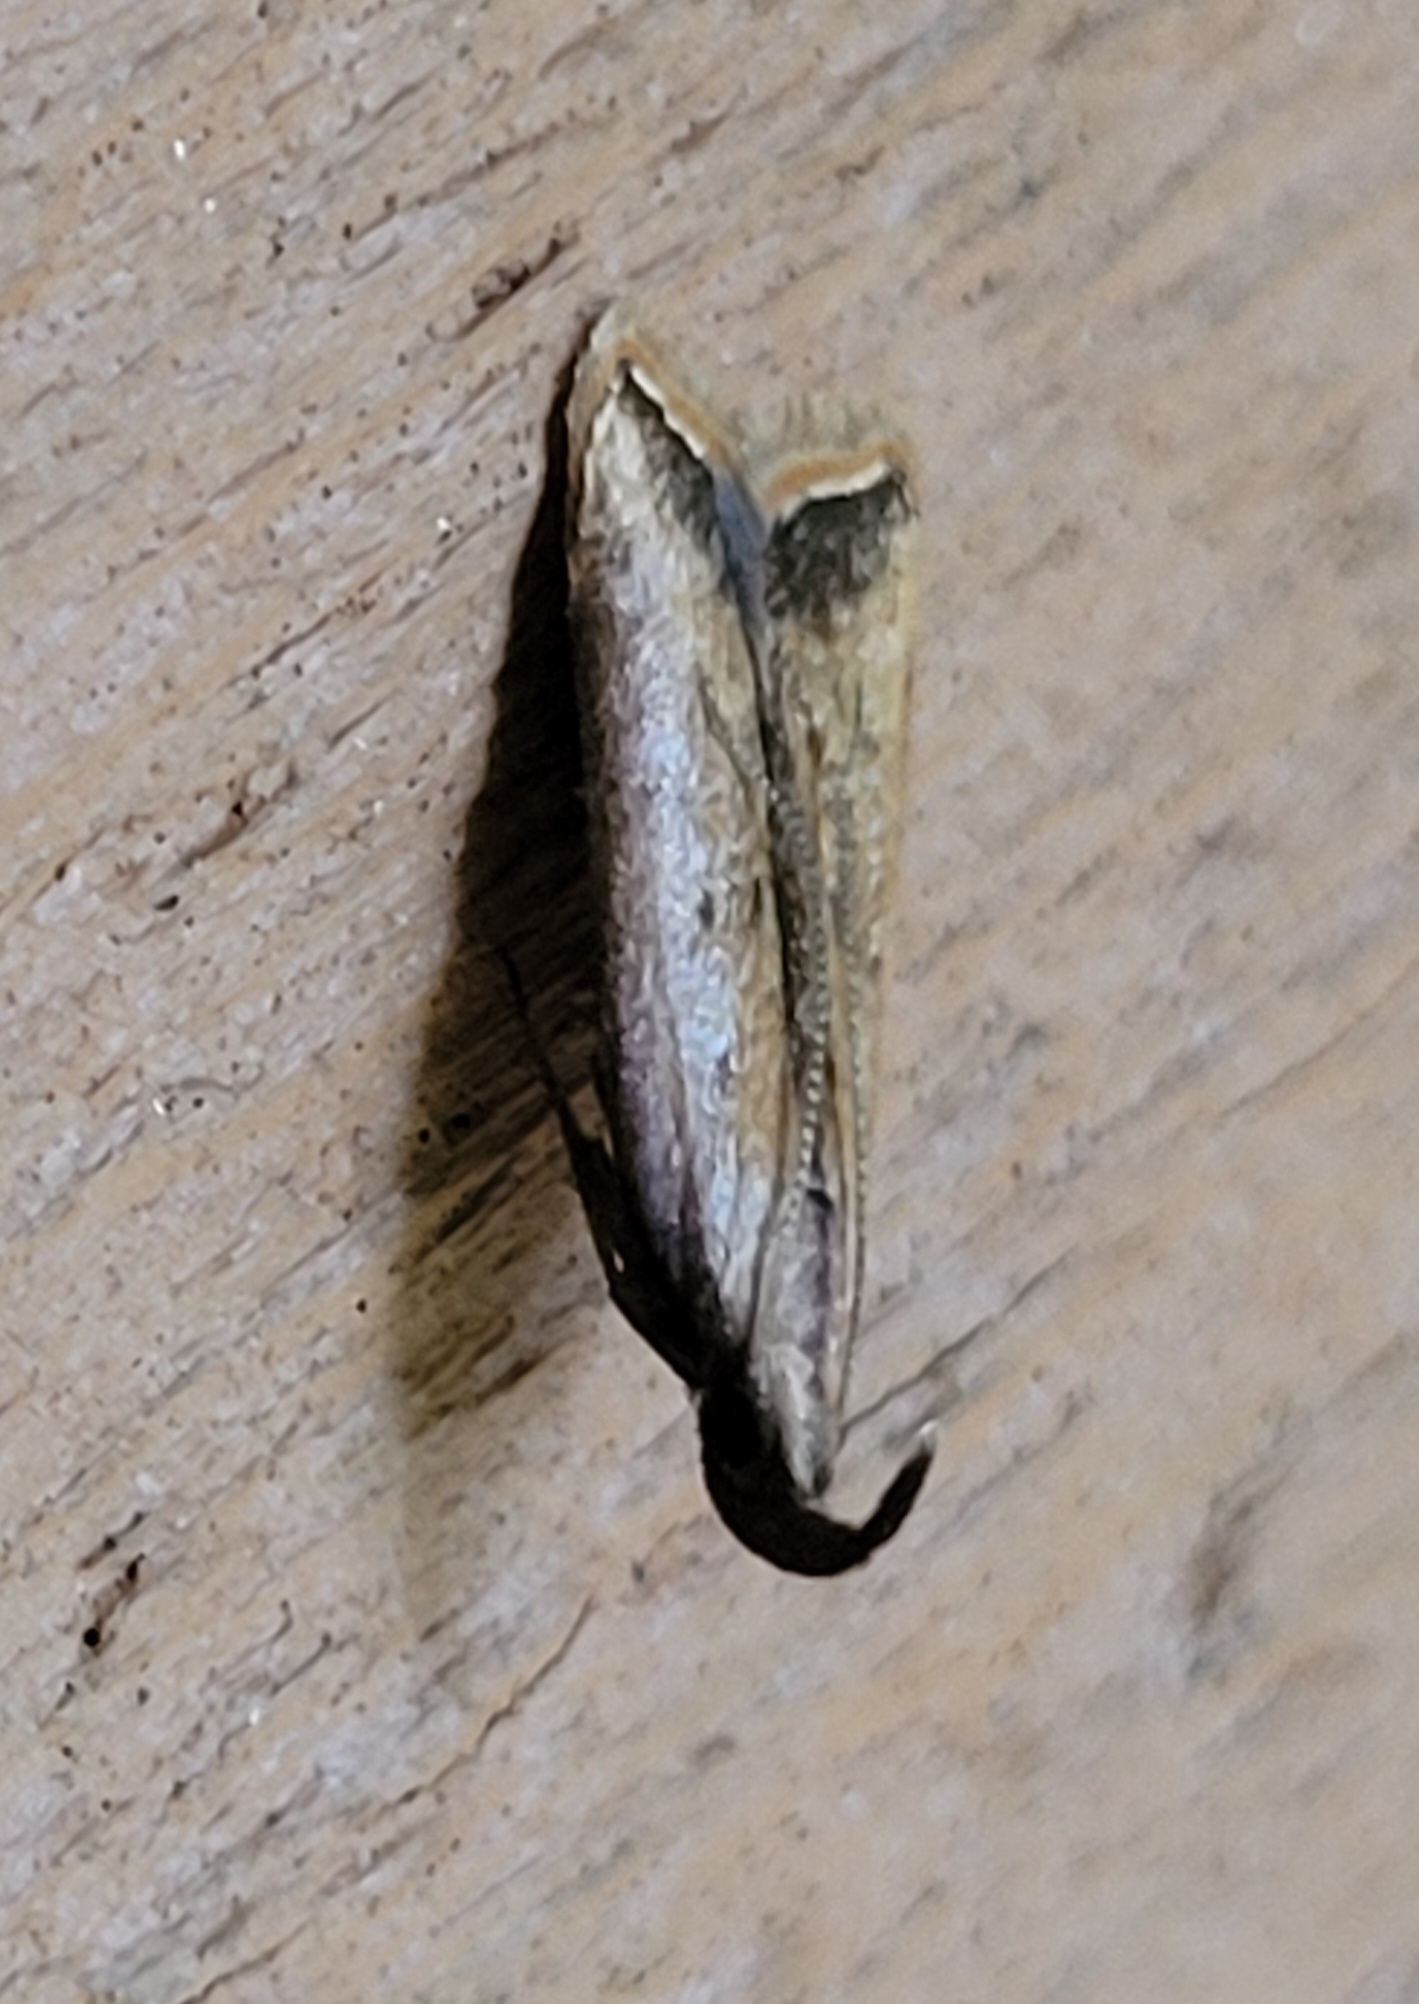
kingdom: Animalia
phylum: Arthropoda
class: Insecta
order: Lepidoptera
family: Gelechiidae
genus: Dichomeris
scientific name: Dichomeris heriguronis
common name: Black-edged dichomeris moth
